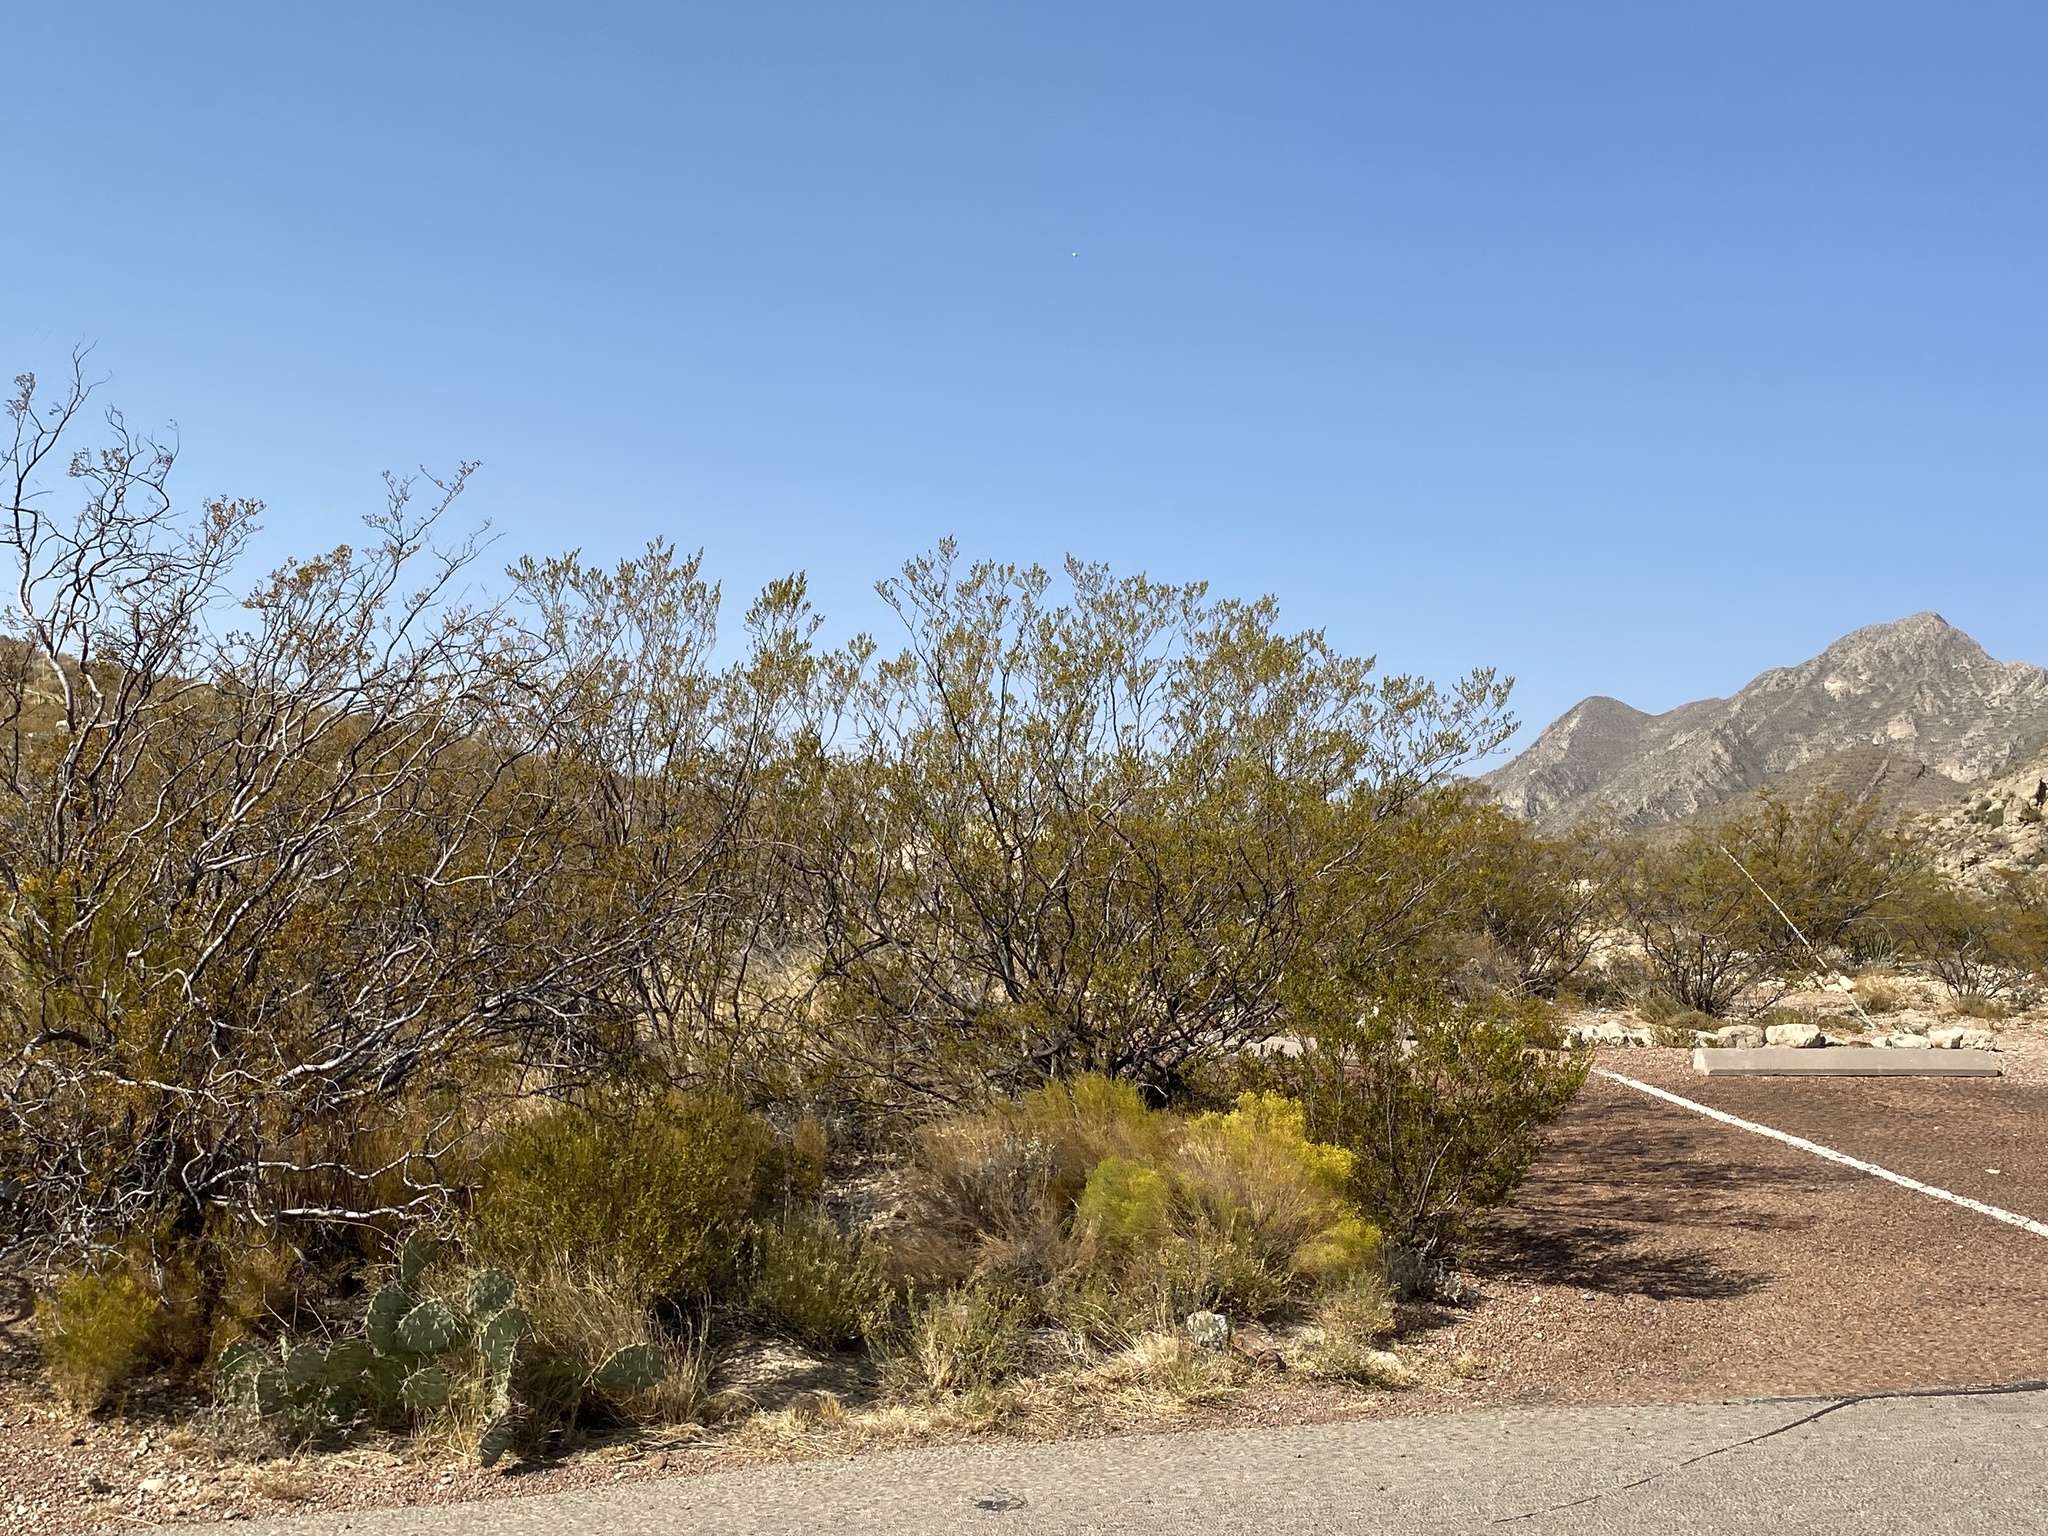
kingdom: Plantae
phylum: Tracheophyta
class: Magnoliopsida
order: Zygophyllales
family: Zygophyllaceae
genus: Larrea
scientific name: Larrea tridentata
